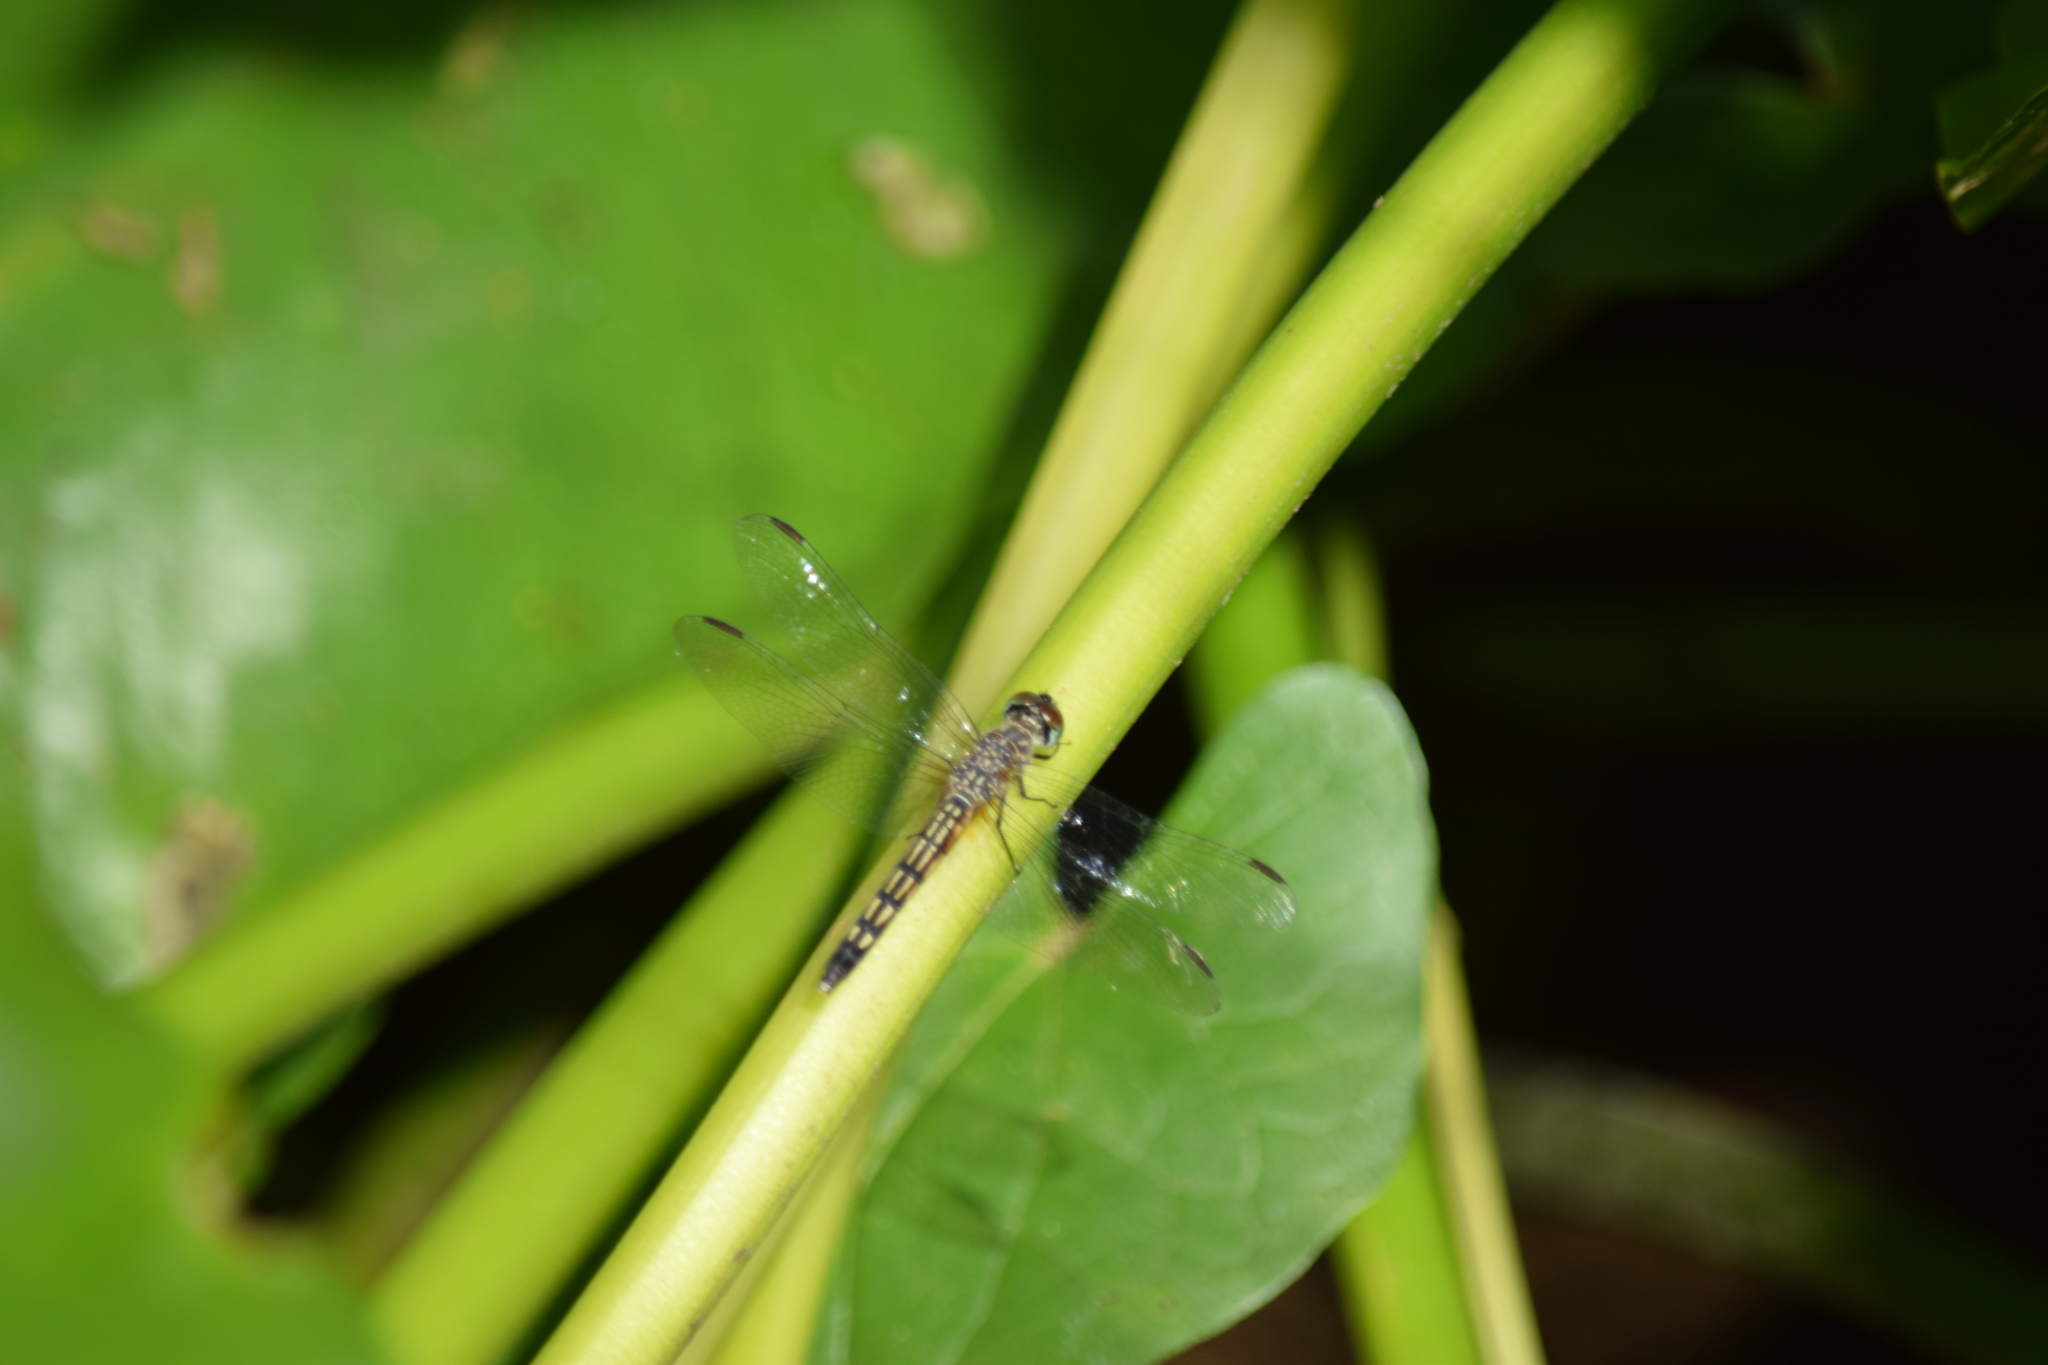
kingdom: Animalia
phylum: Arthropoda
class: Insecta
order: Odonata
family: Libellulidae
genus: Pachydiplax
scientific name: Pachydiplax longipennis
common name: Blue dasher
